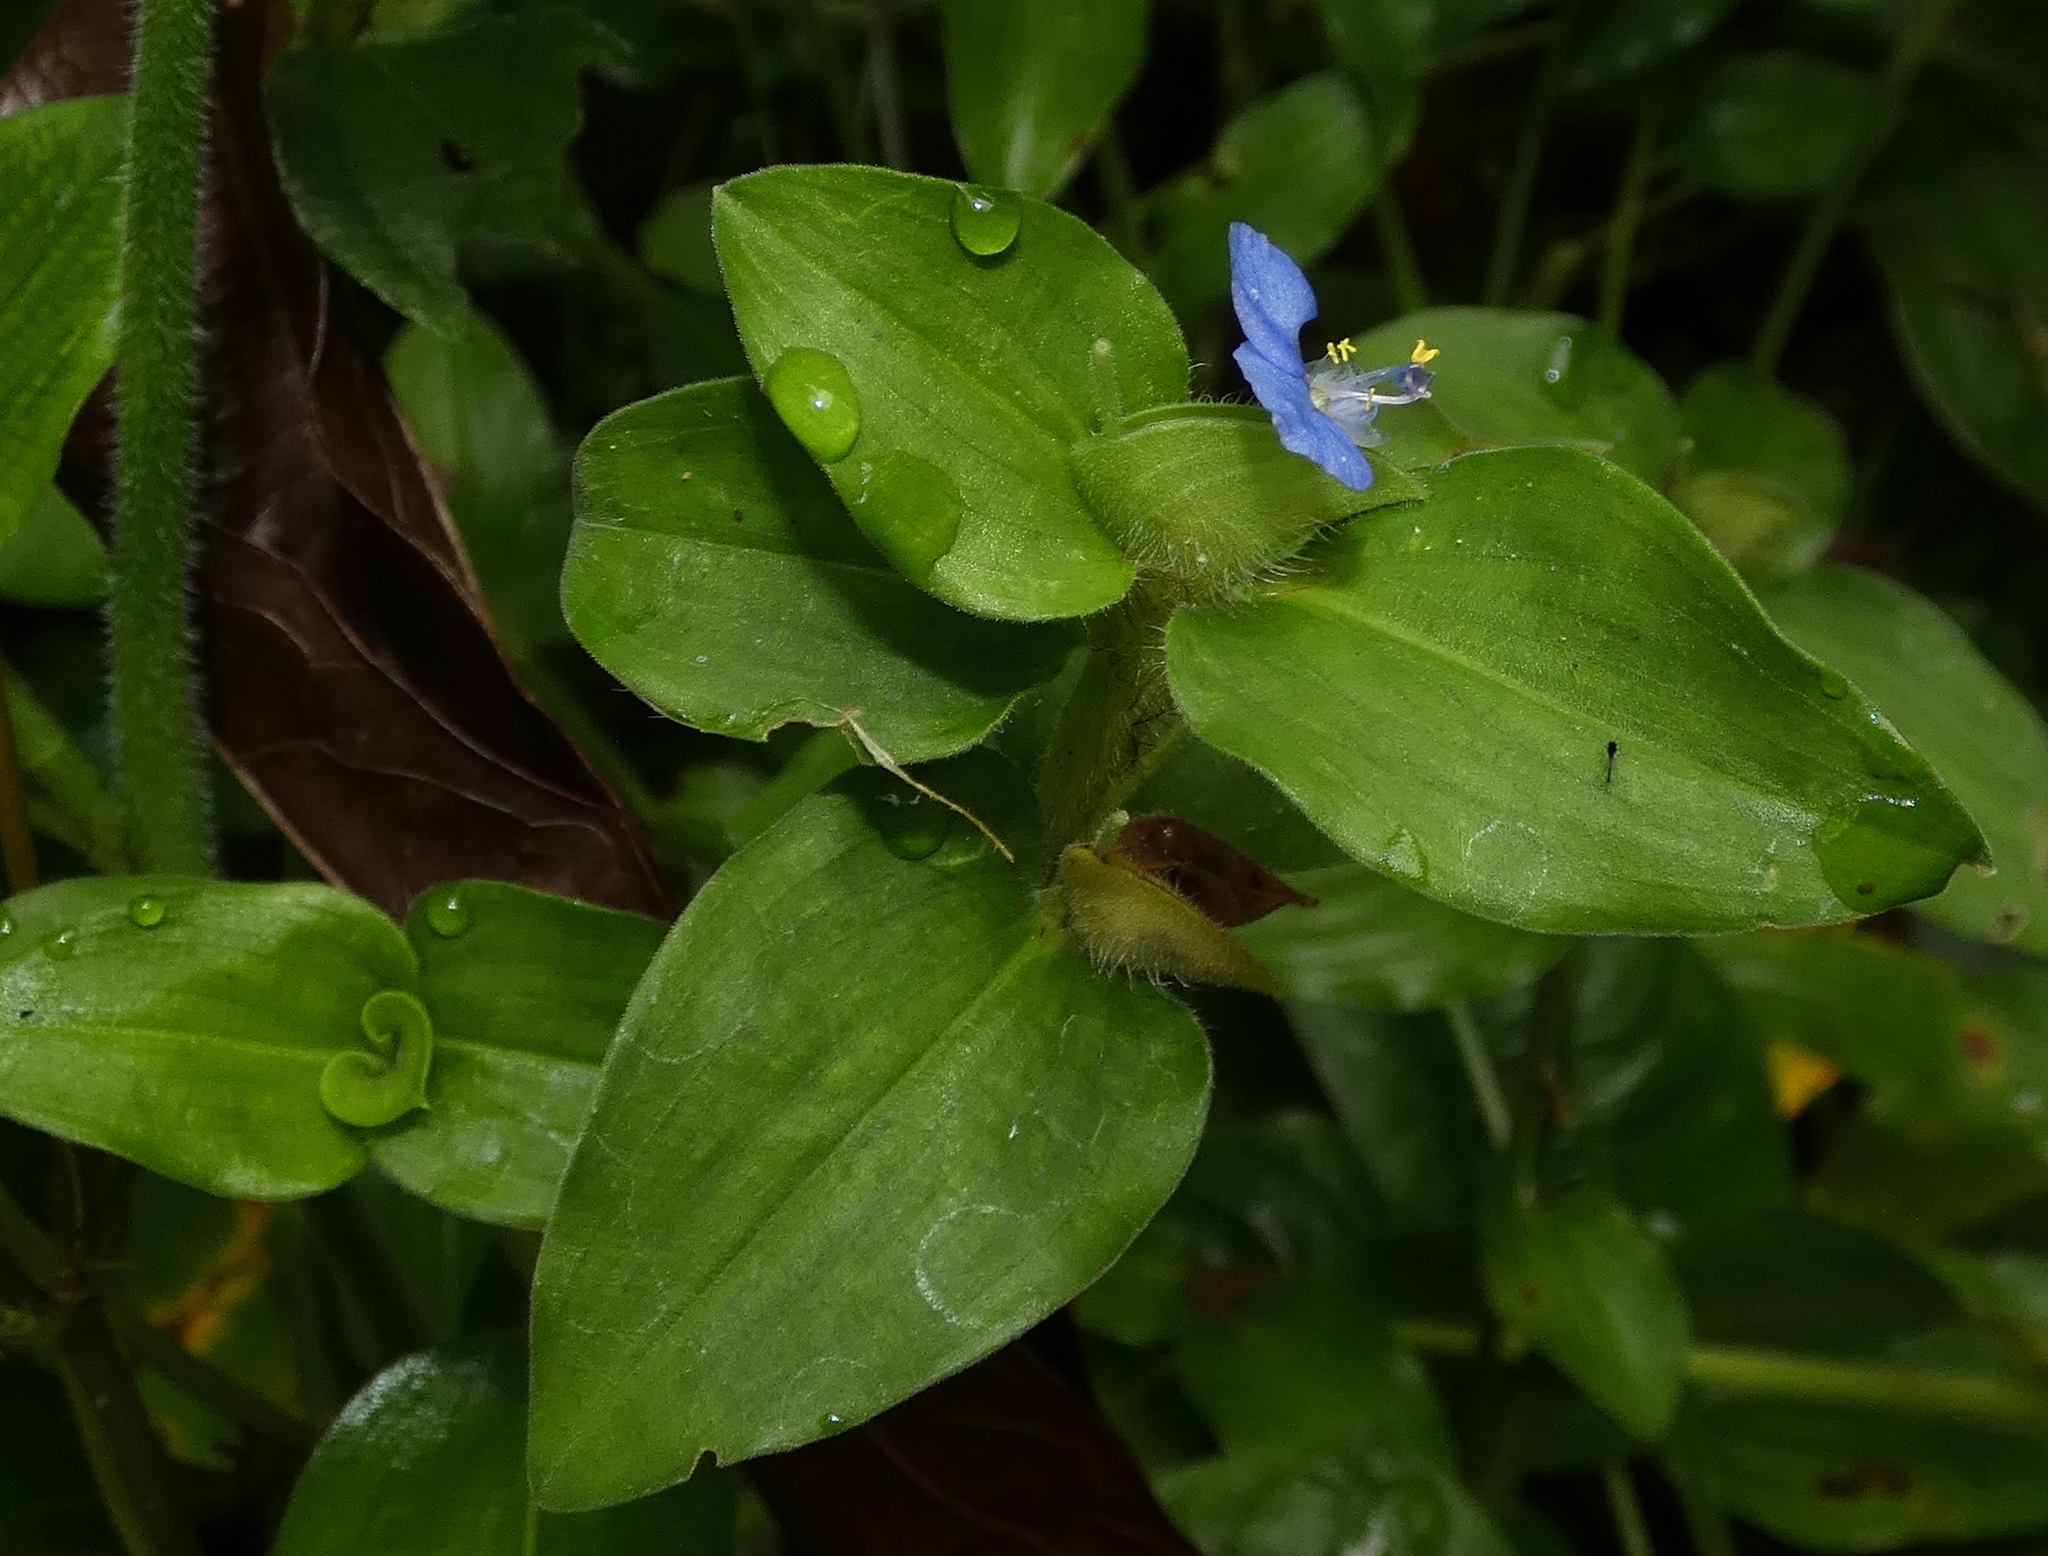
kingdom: Plantae
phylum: Tracheophyta
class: Liliopsida
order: Commelinales
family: Commelinaceae
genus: Commelina
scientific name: Commelina benghalensis
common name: Jio
